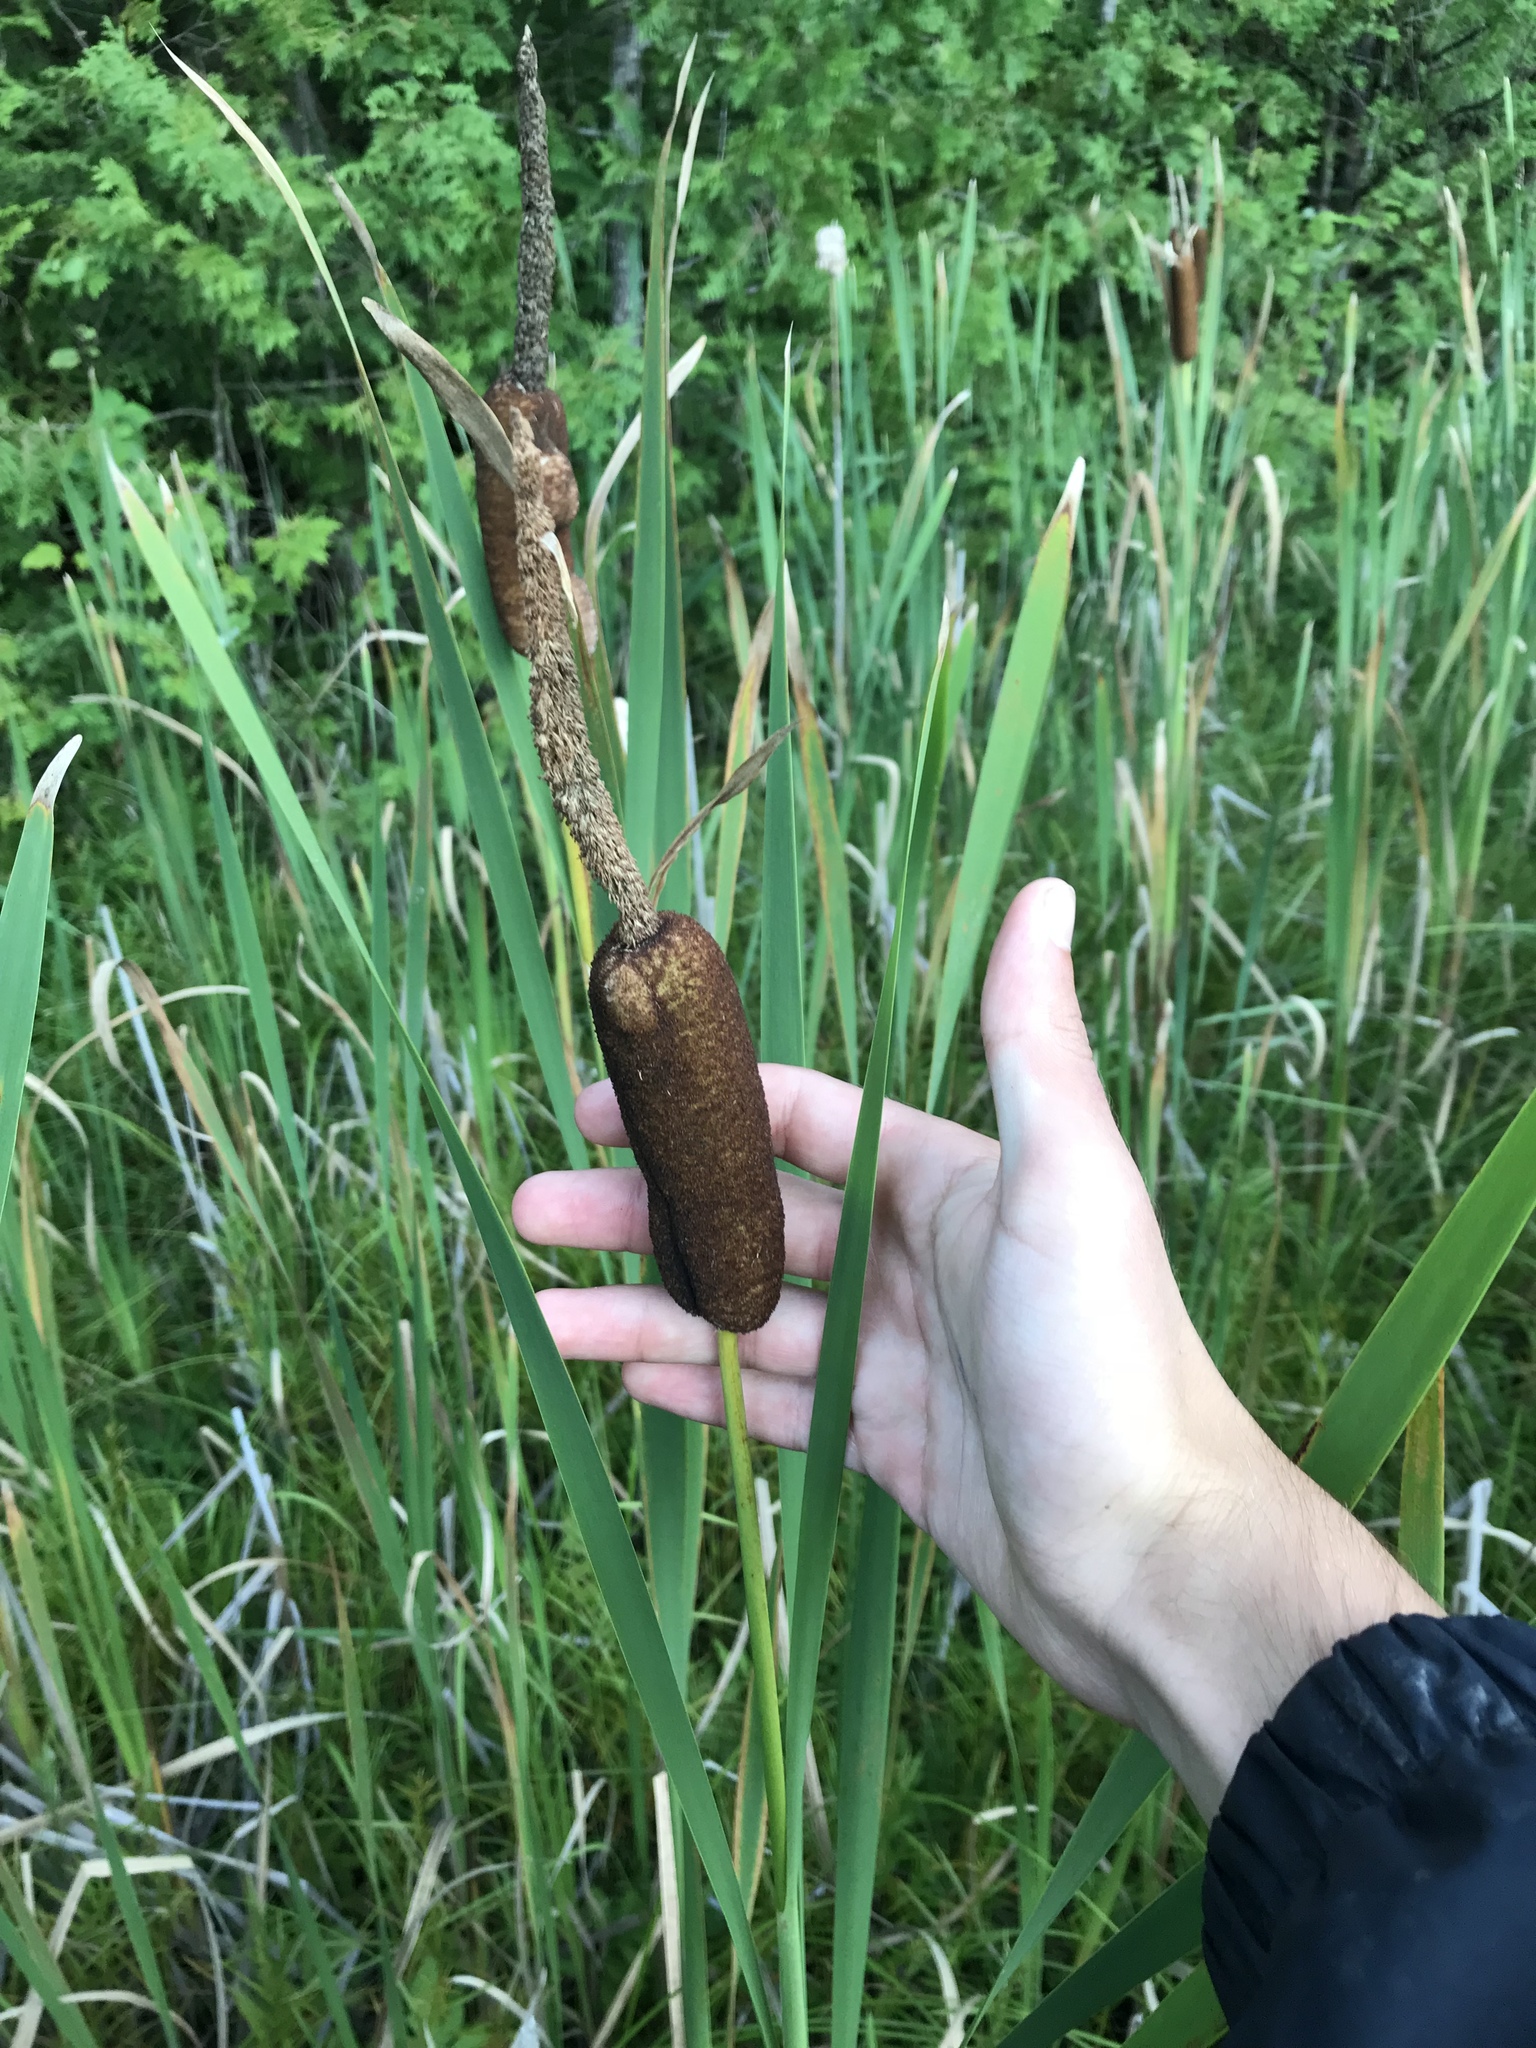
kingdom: Plantae
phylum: Tracheophyta
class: Liliopsida
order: Poales
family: Typhaceae
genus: Typha
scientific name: Typha latifolia
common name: Broadleaf cattail
